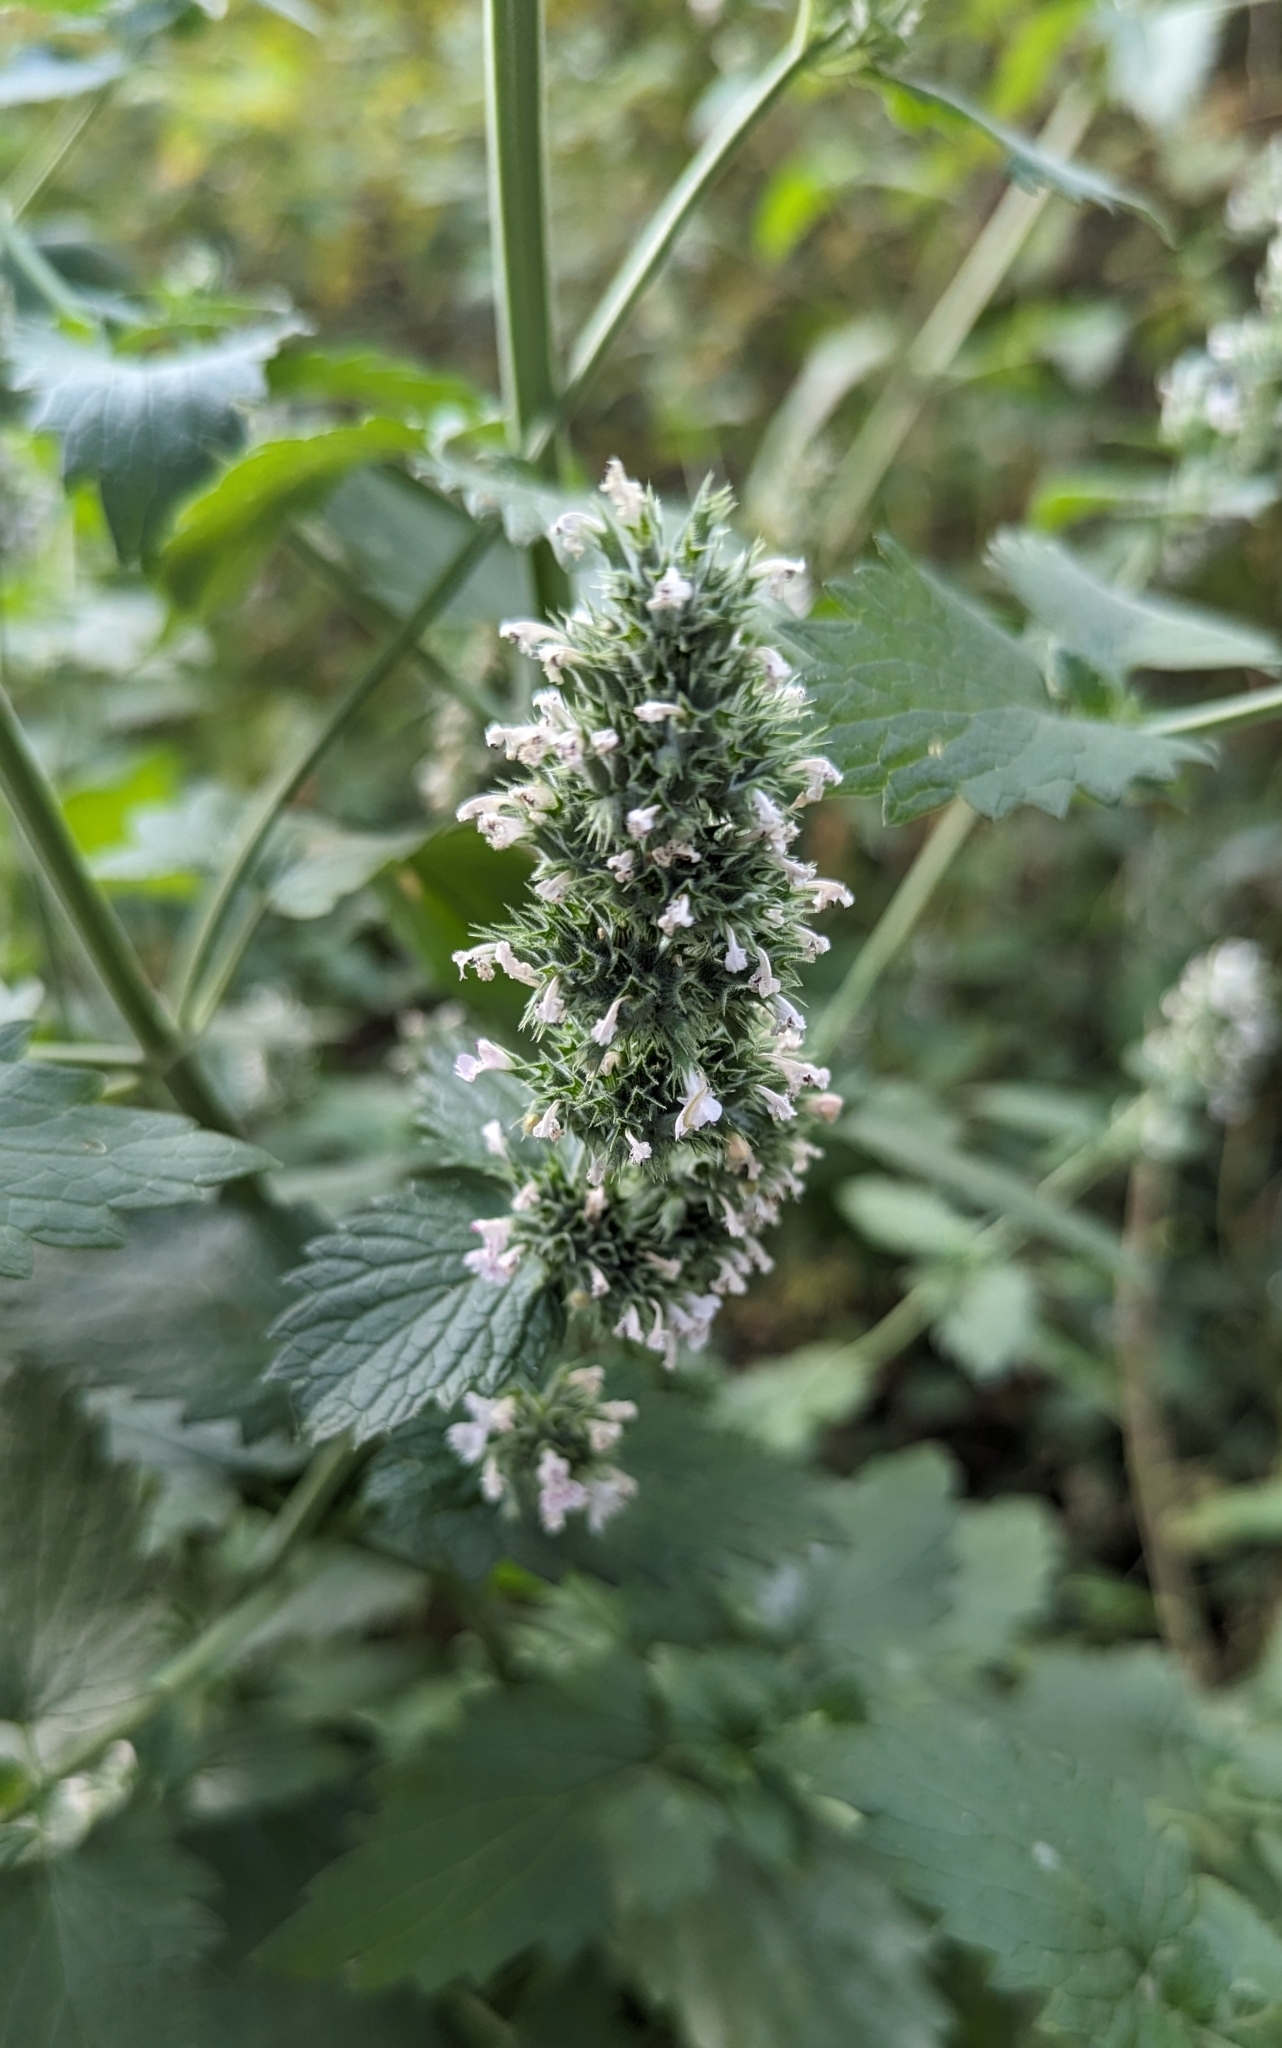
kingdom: Plantae
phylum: Tracheophyta
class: Magnoliopsida
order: Lamiales
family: Lamiaceae
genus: Nepeta
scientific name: Nepeta cataria
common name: Catnip
